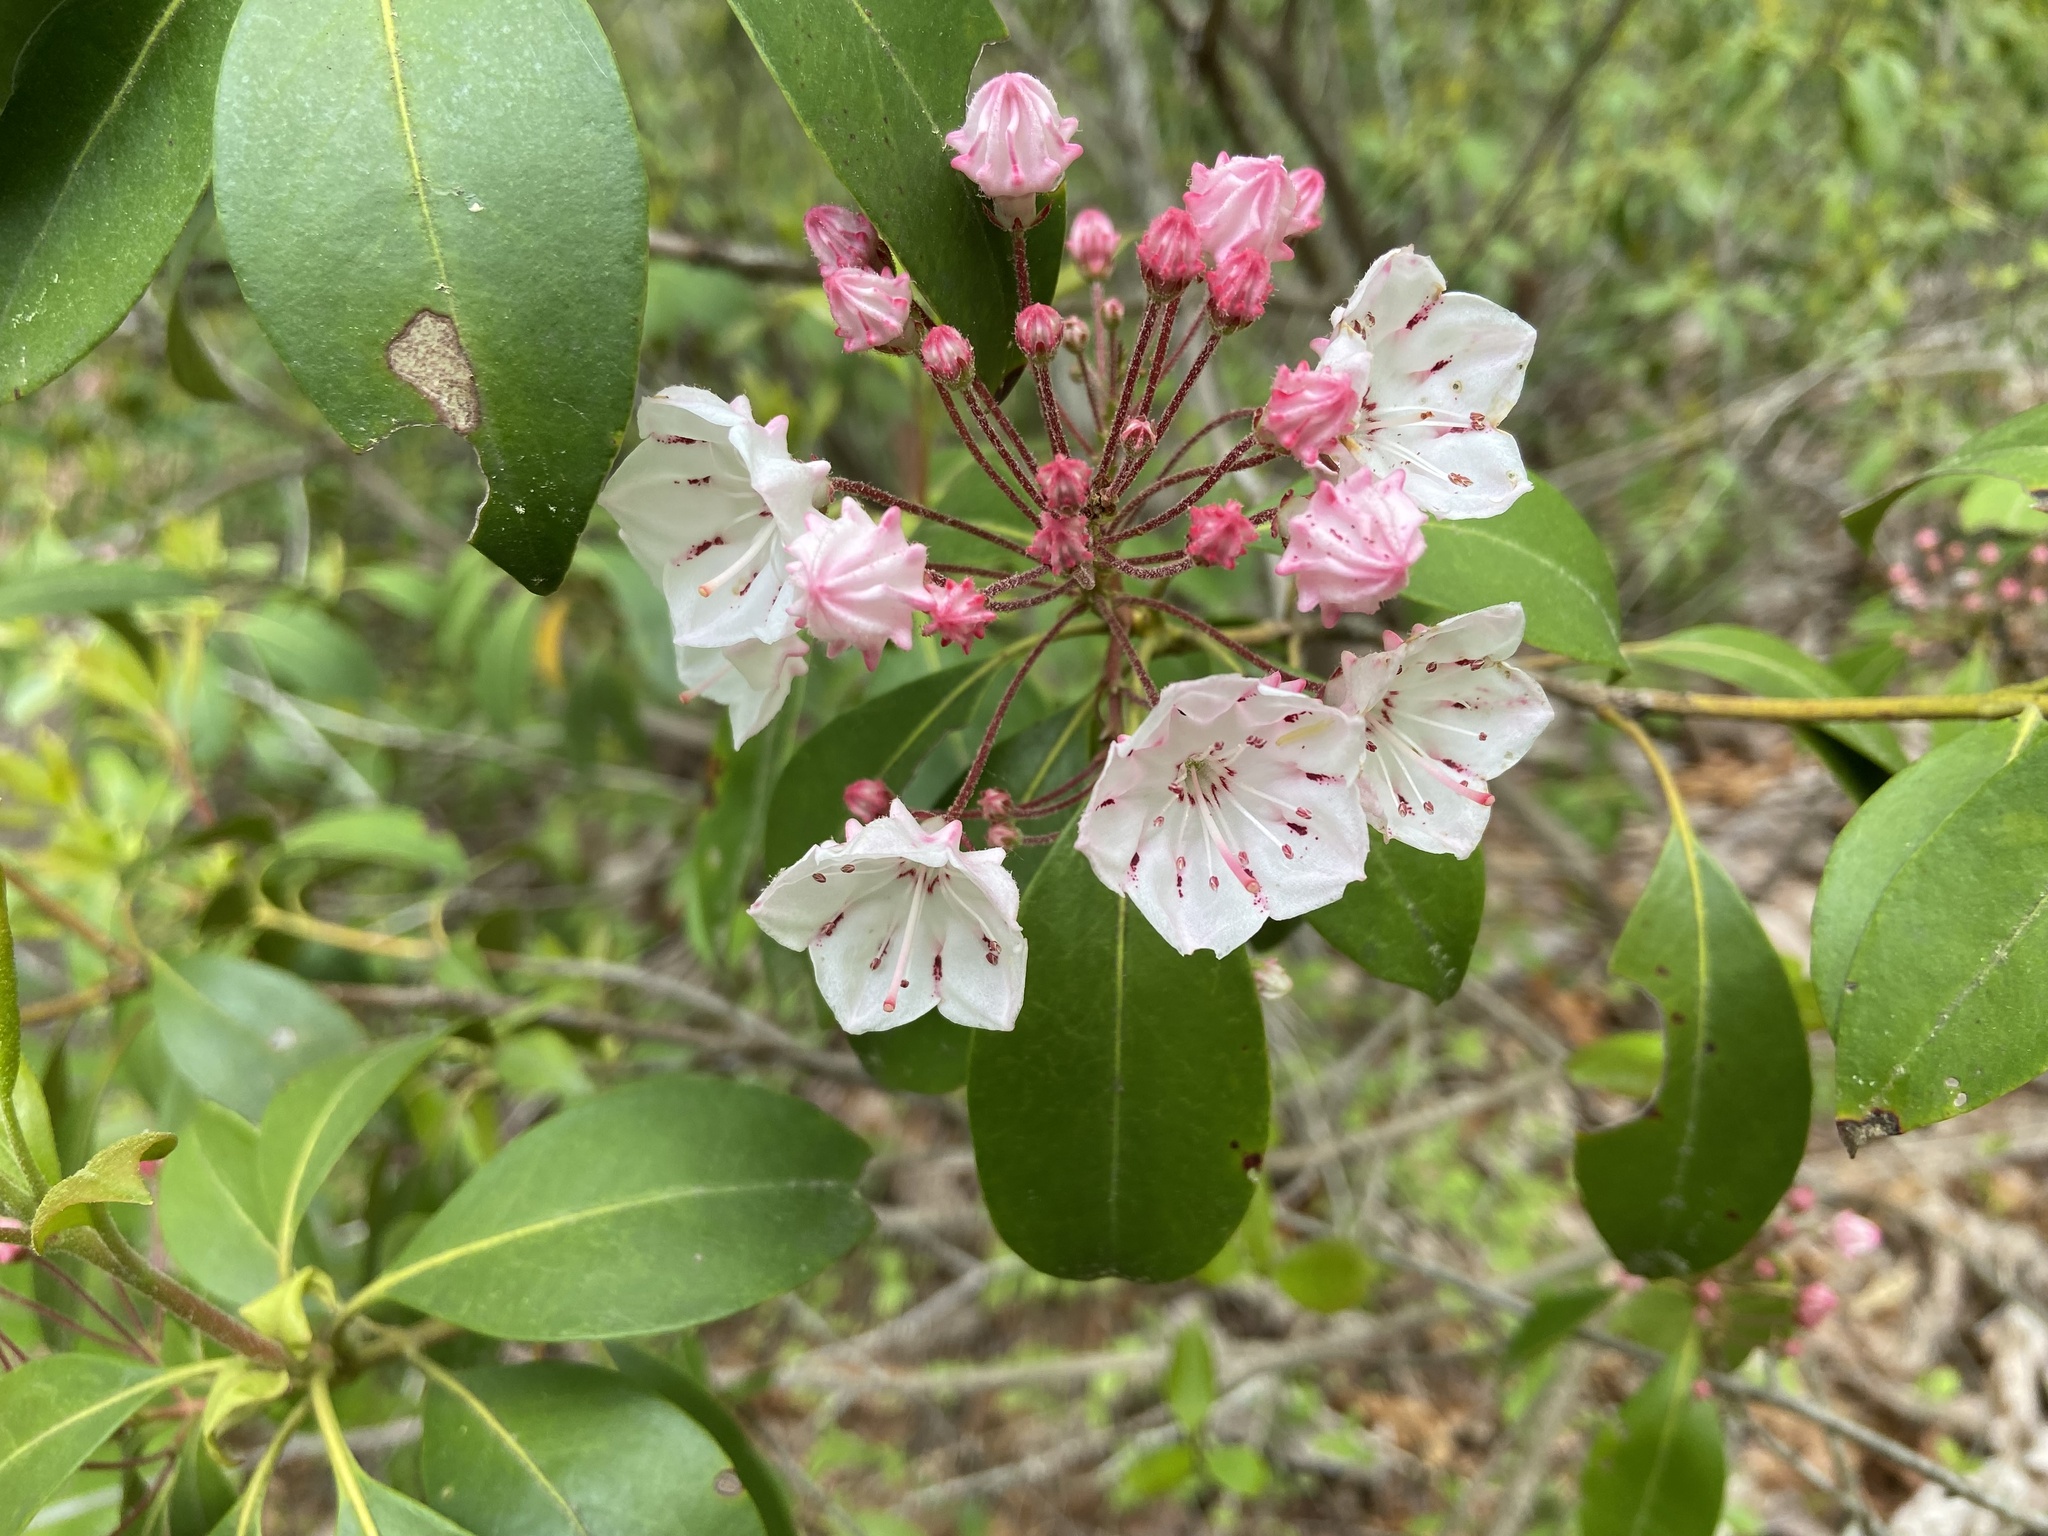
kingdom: Plantae
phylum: Tracheophyta
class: Magnoliopsida
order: Ericales
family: Ericaceae
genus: Kalmia
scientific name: Kalmia latifolia
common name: Mountain-laurel
